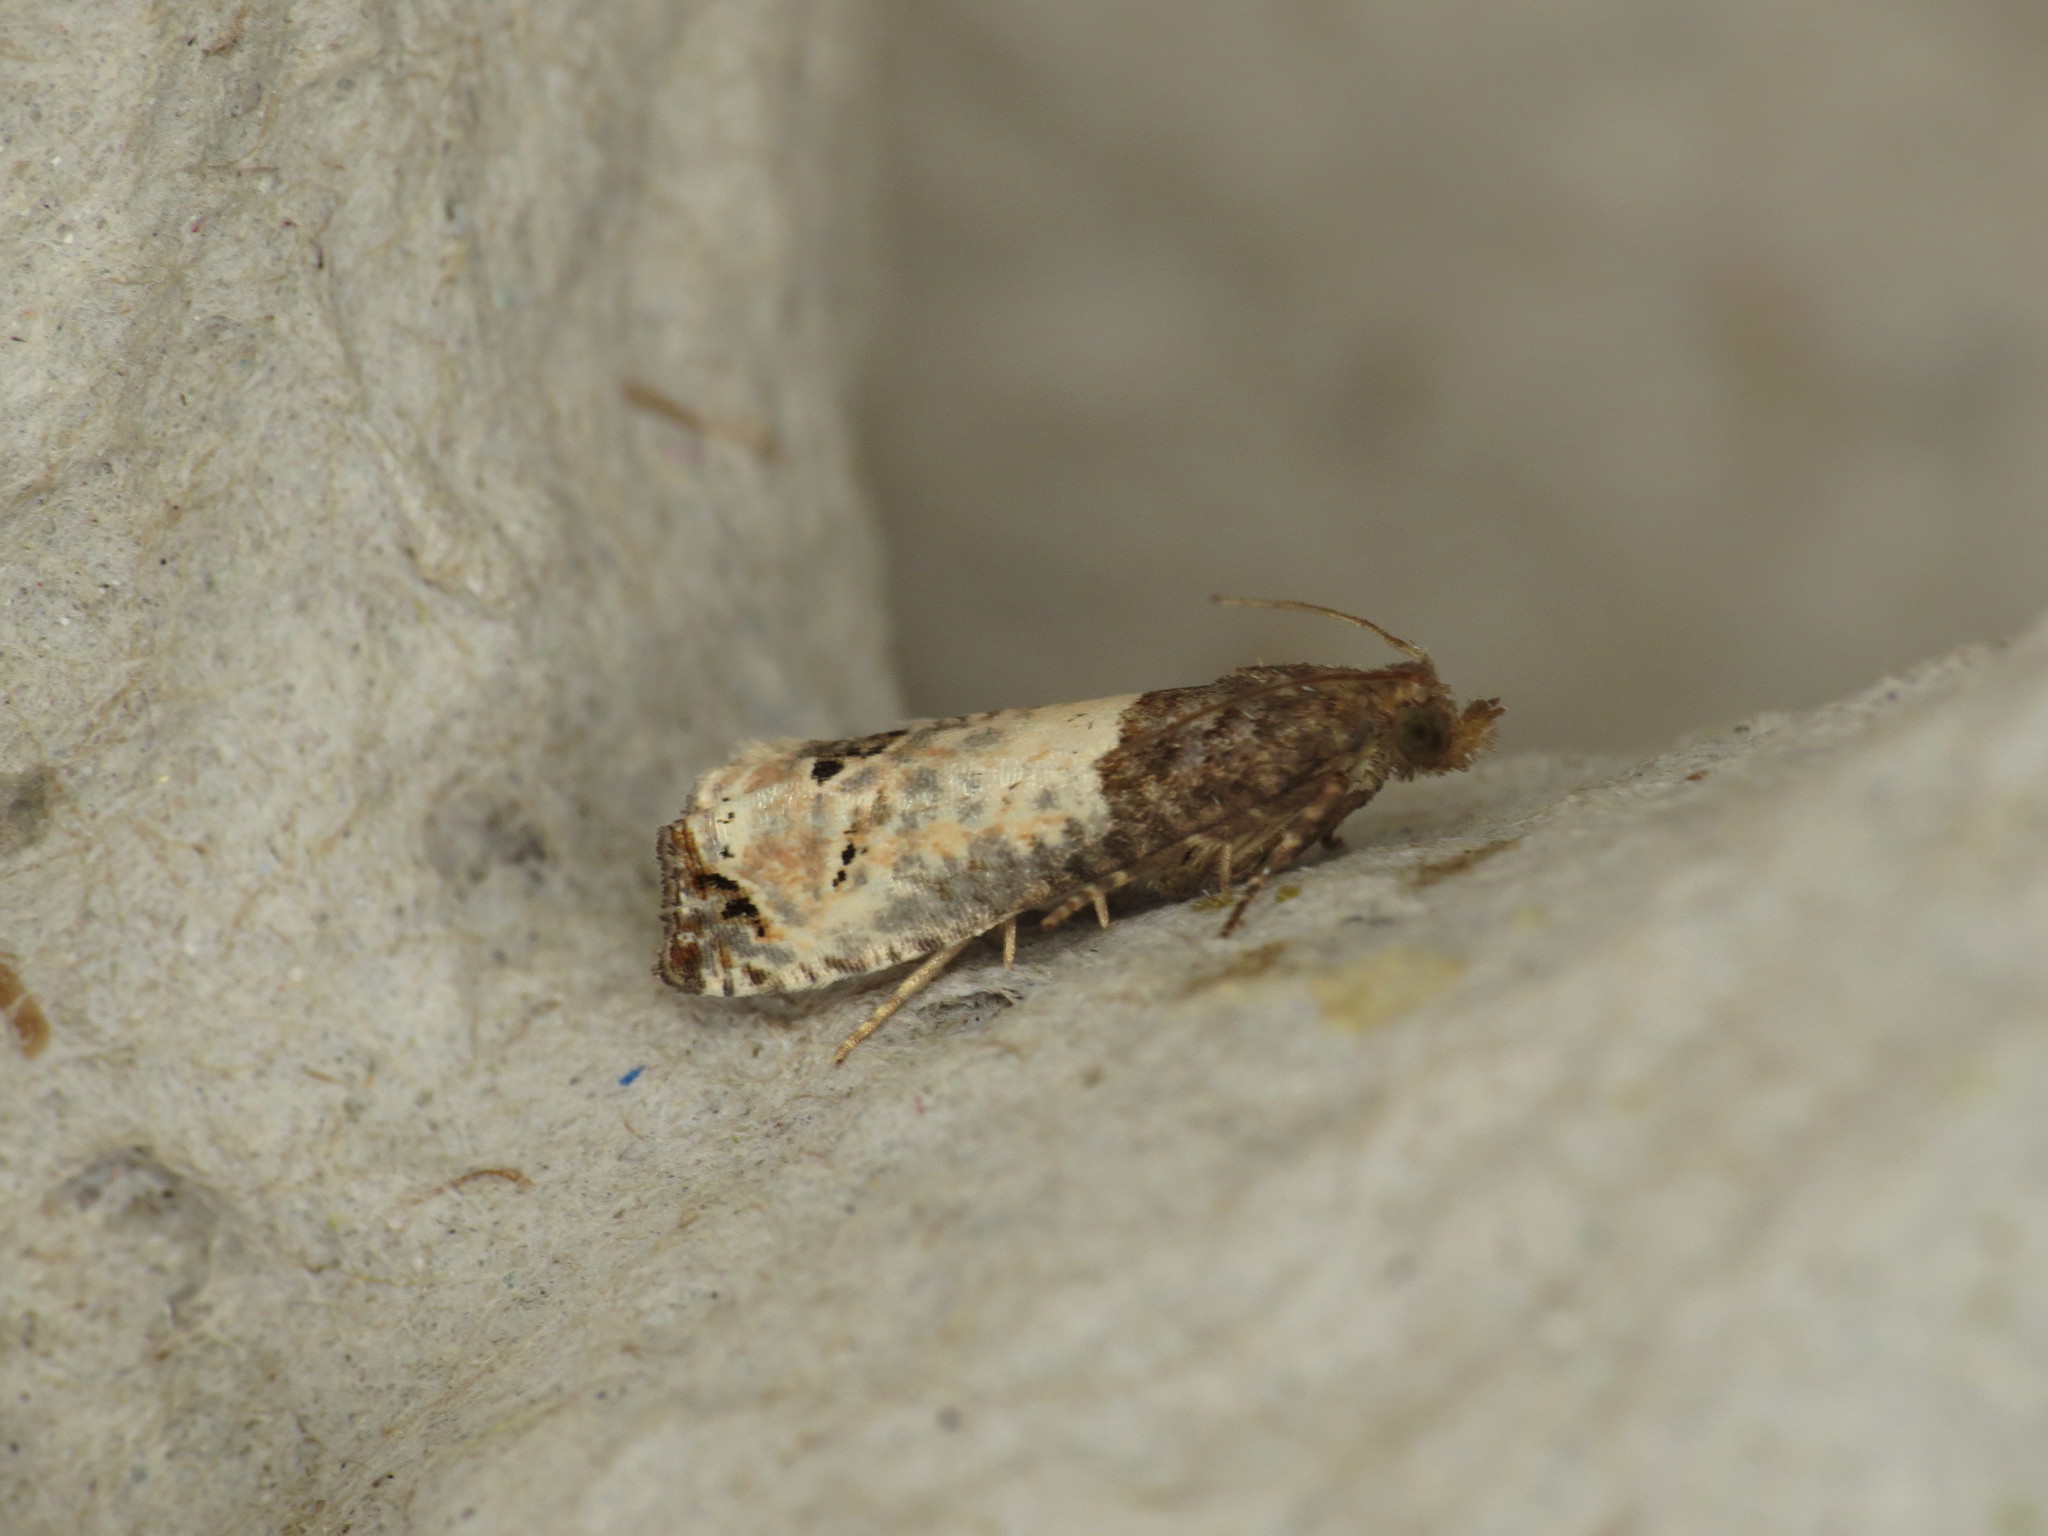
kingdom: Animalia
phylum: Arthropoda
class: Insecta
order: Lepidoptera
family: Tortricidae
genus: Epiblema
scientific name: Epiblema aquana
